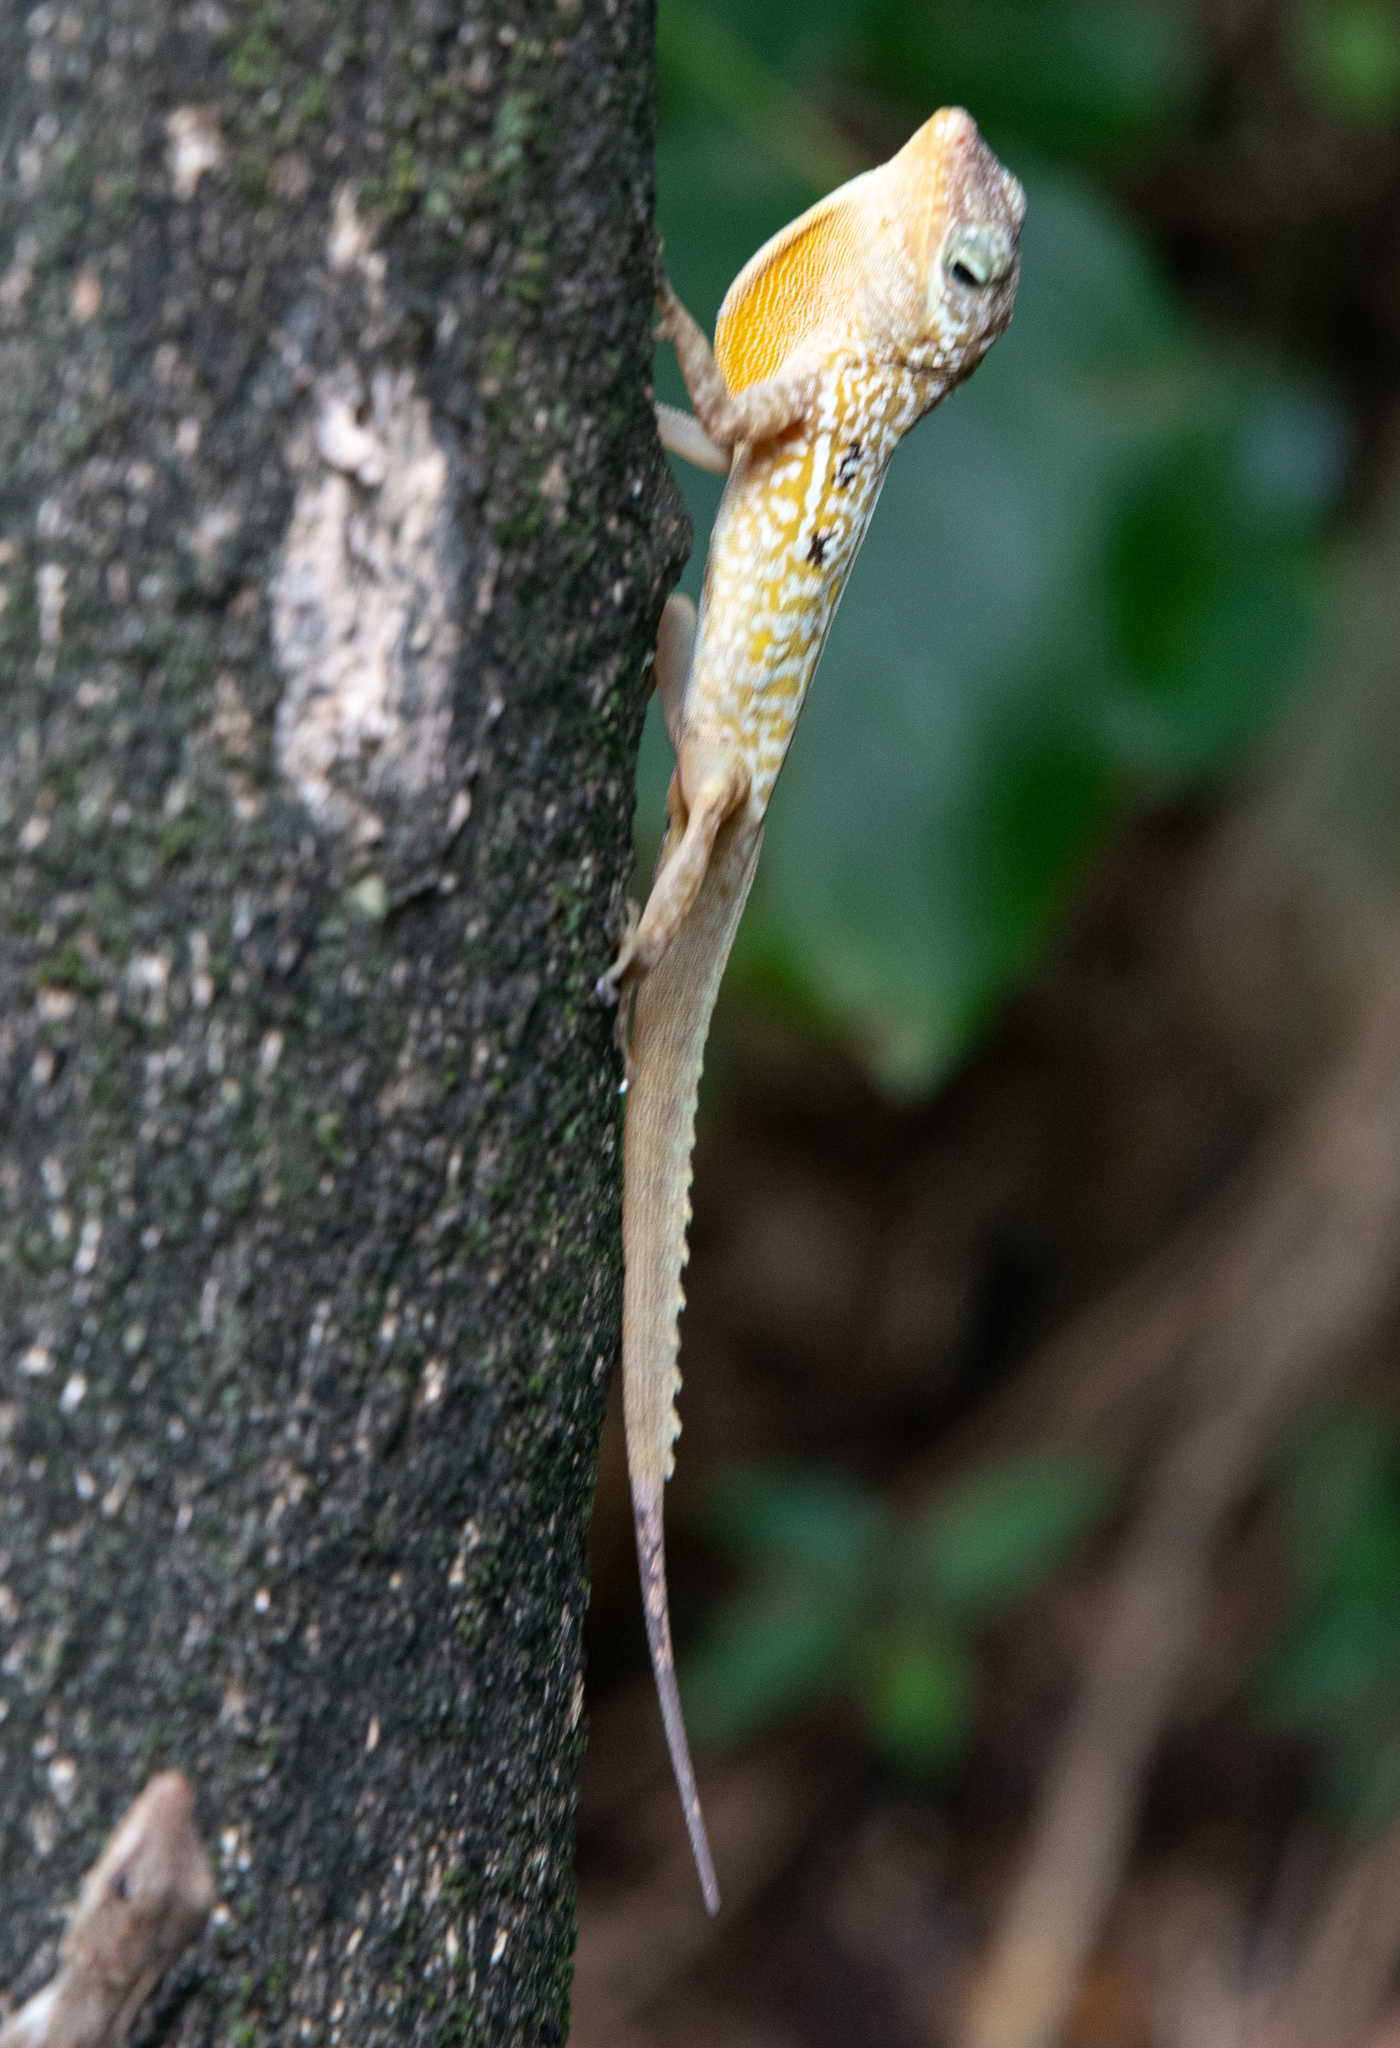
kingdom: Animalia
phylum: Chordata
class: Squamata
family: Dactyloidae
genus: Anolis
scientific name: Anolis oculatus
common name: Dominica anole
